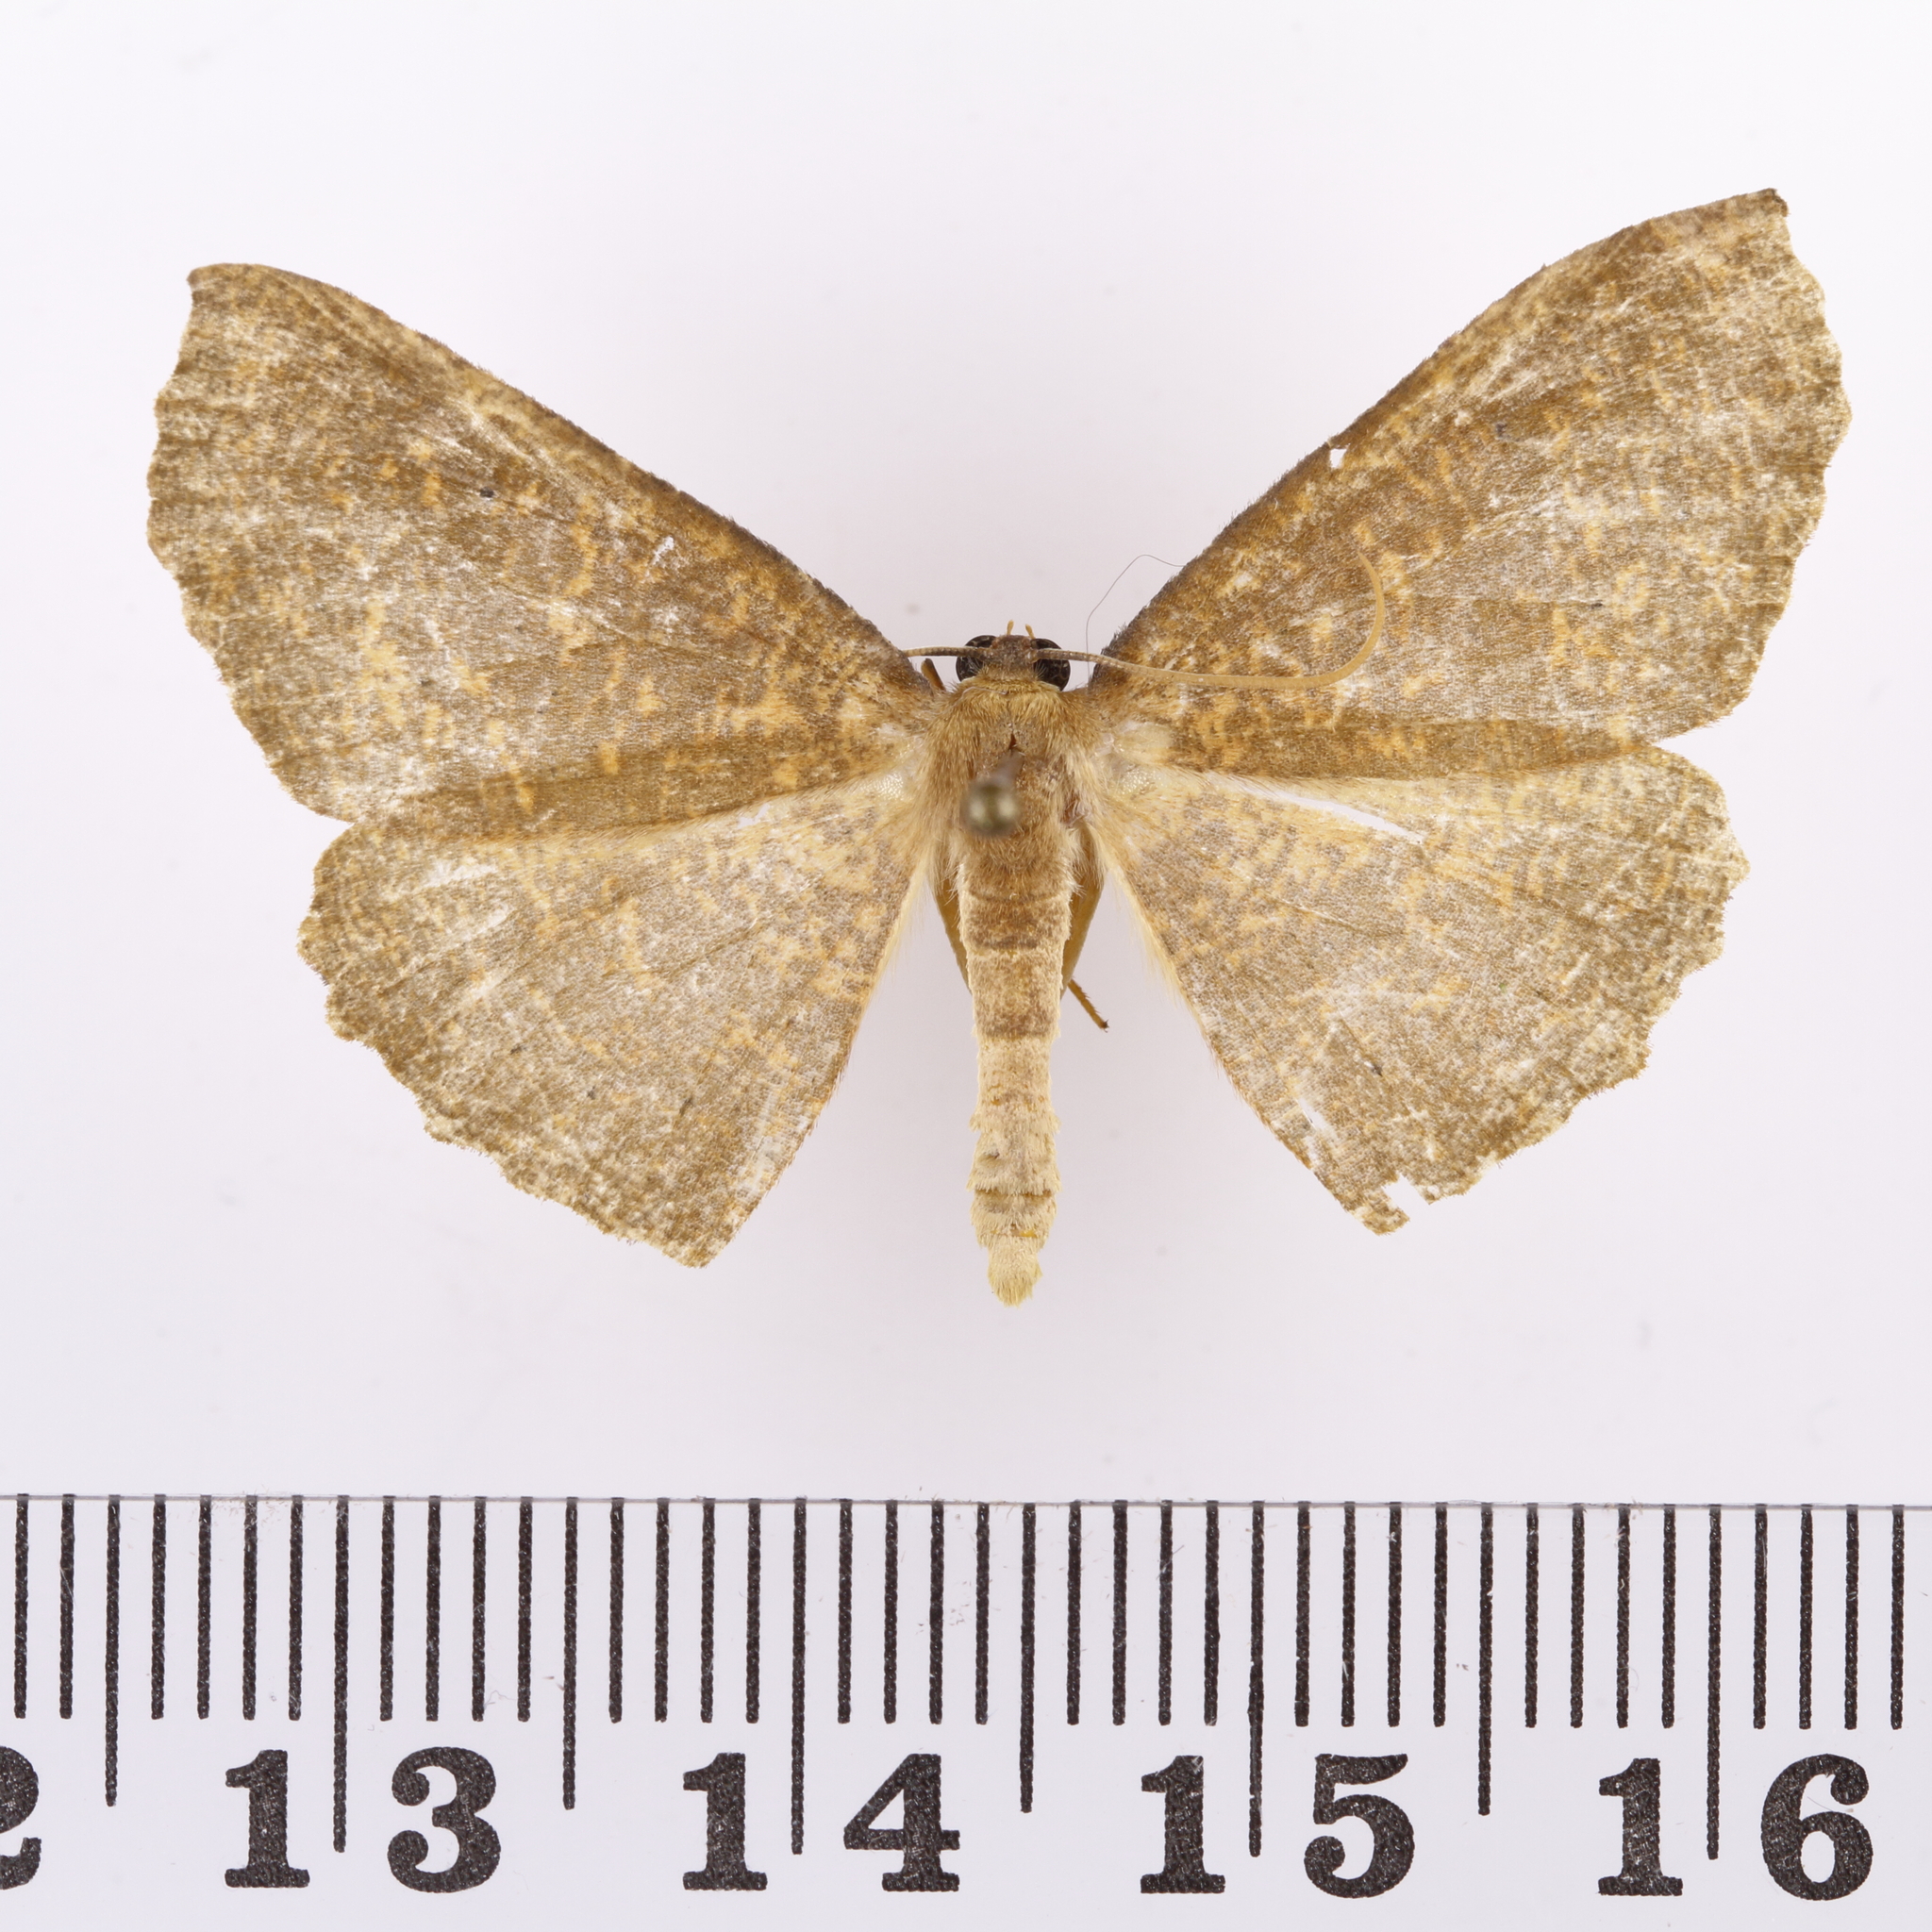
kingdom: Animalia
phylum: Arthropoda
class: Insecta
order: Lepidoptera
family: Geometridae
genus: Xyridacma
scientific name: Xyridacma ustaria
